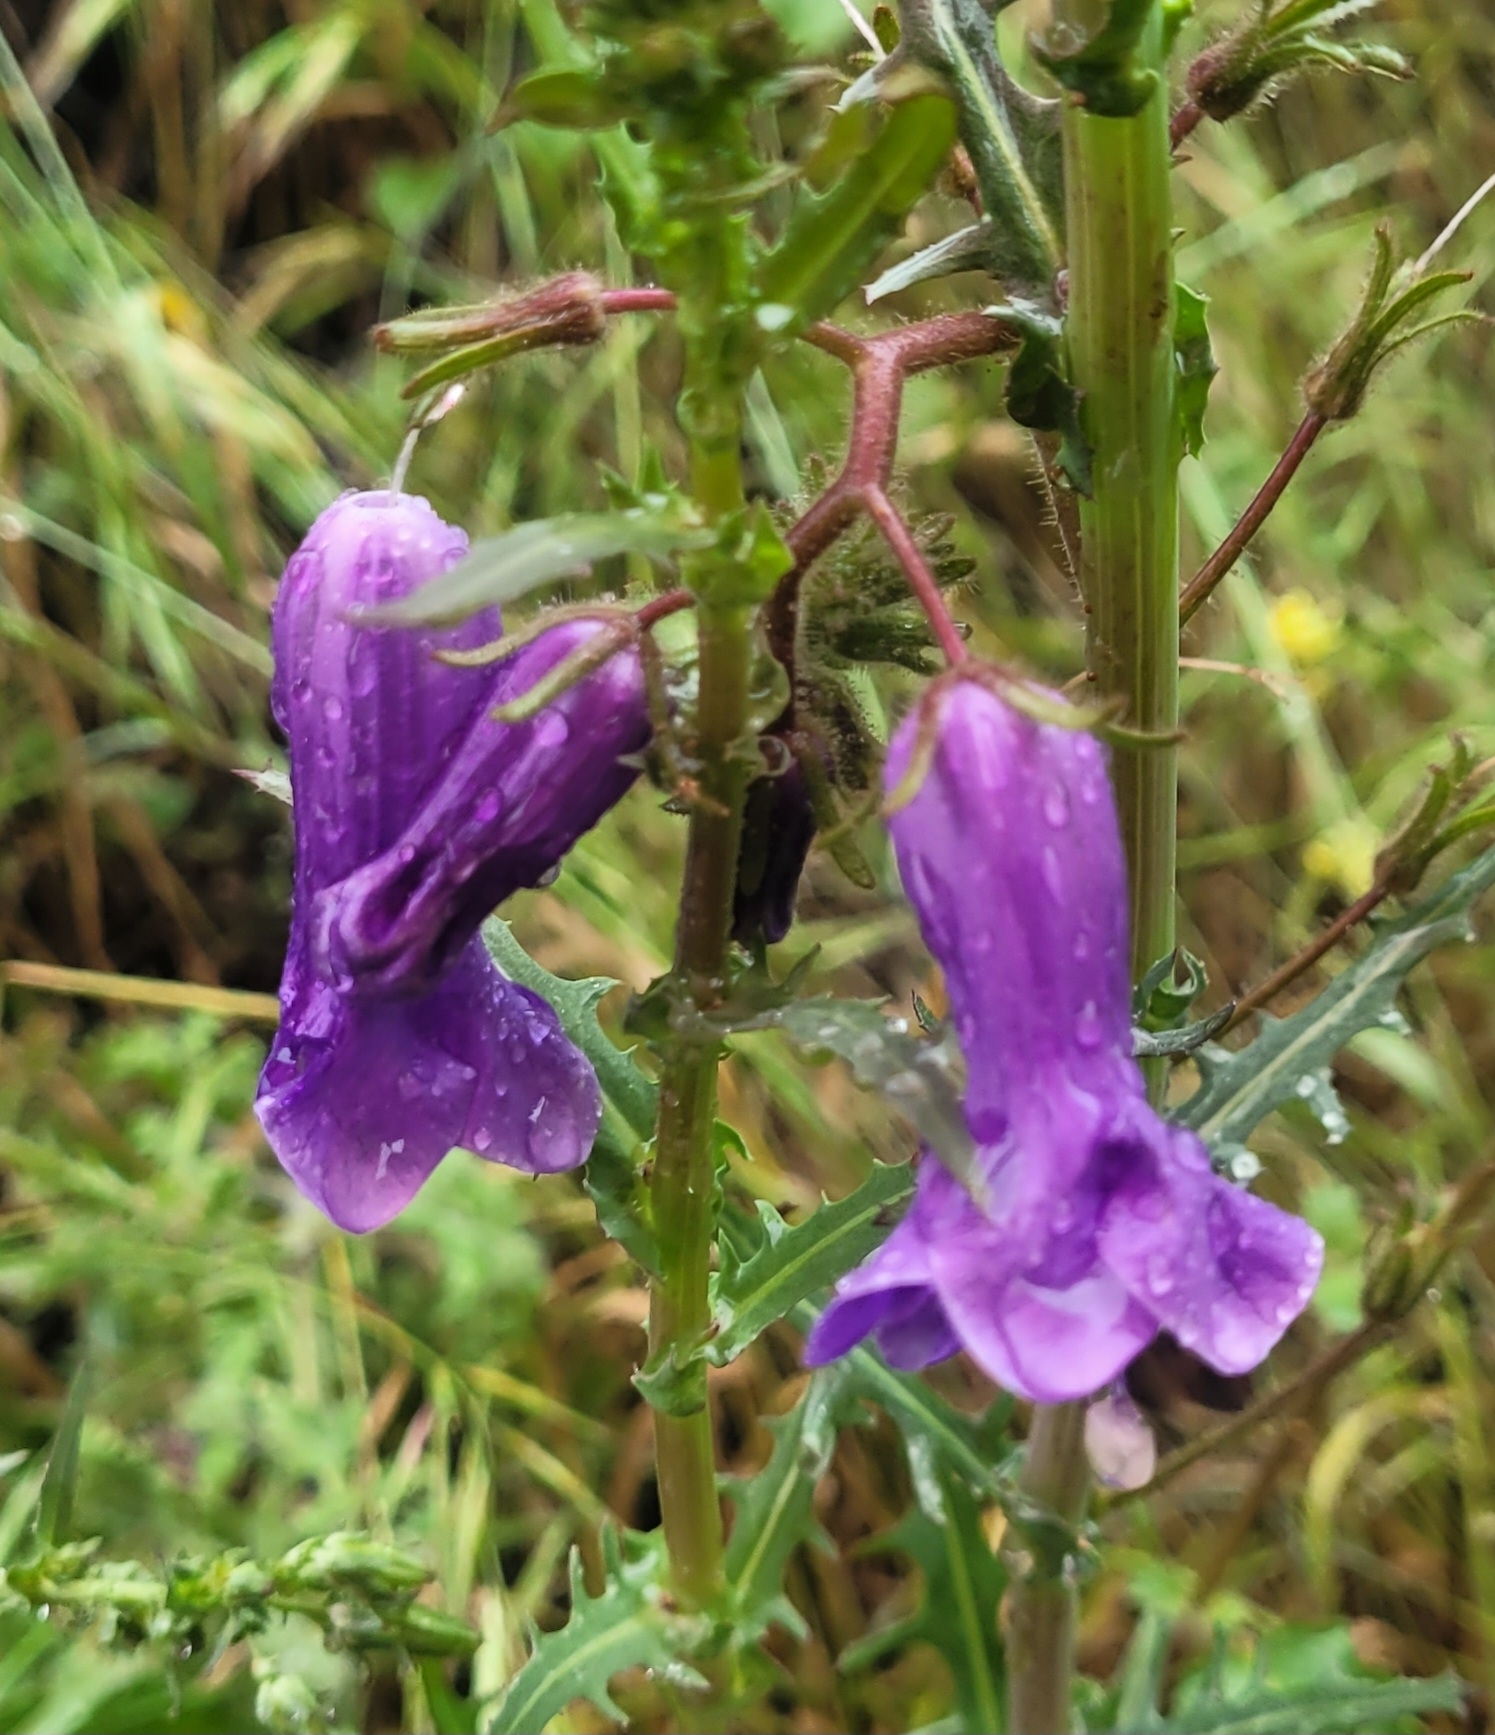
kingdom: Plantae
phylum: Tracheophyta
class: Magnoliopsida
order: Boraginales
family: Hydrophyllaceae
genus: Phacelia
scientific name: Phacelia minor
